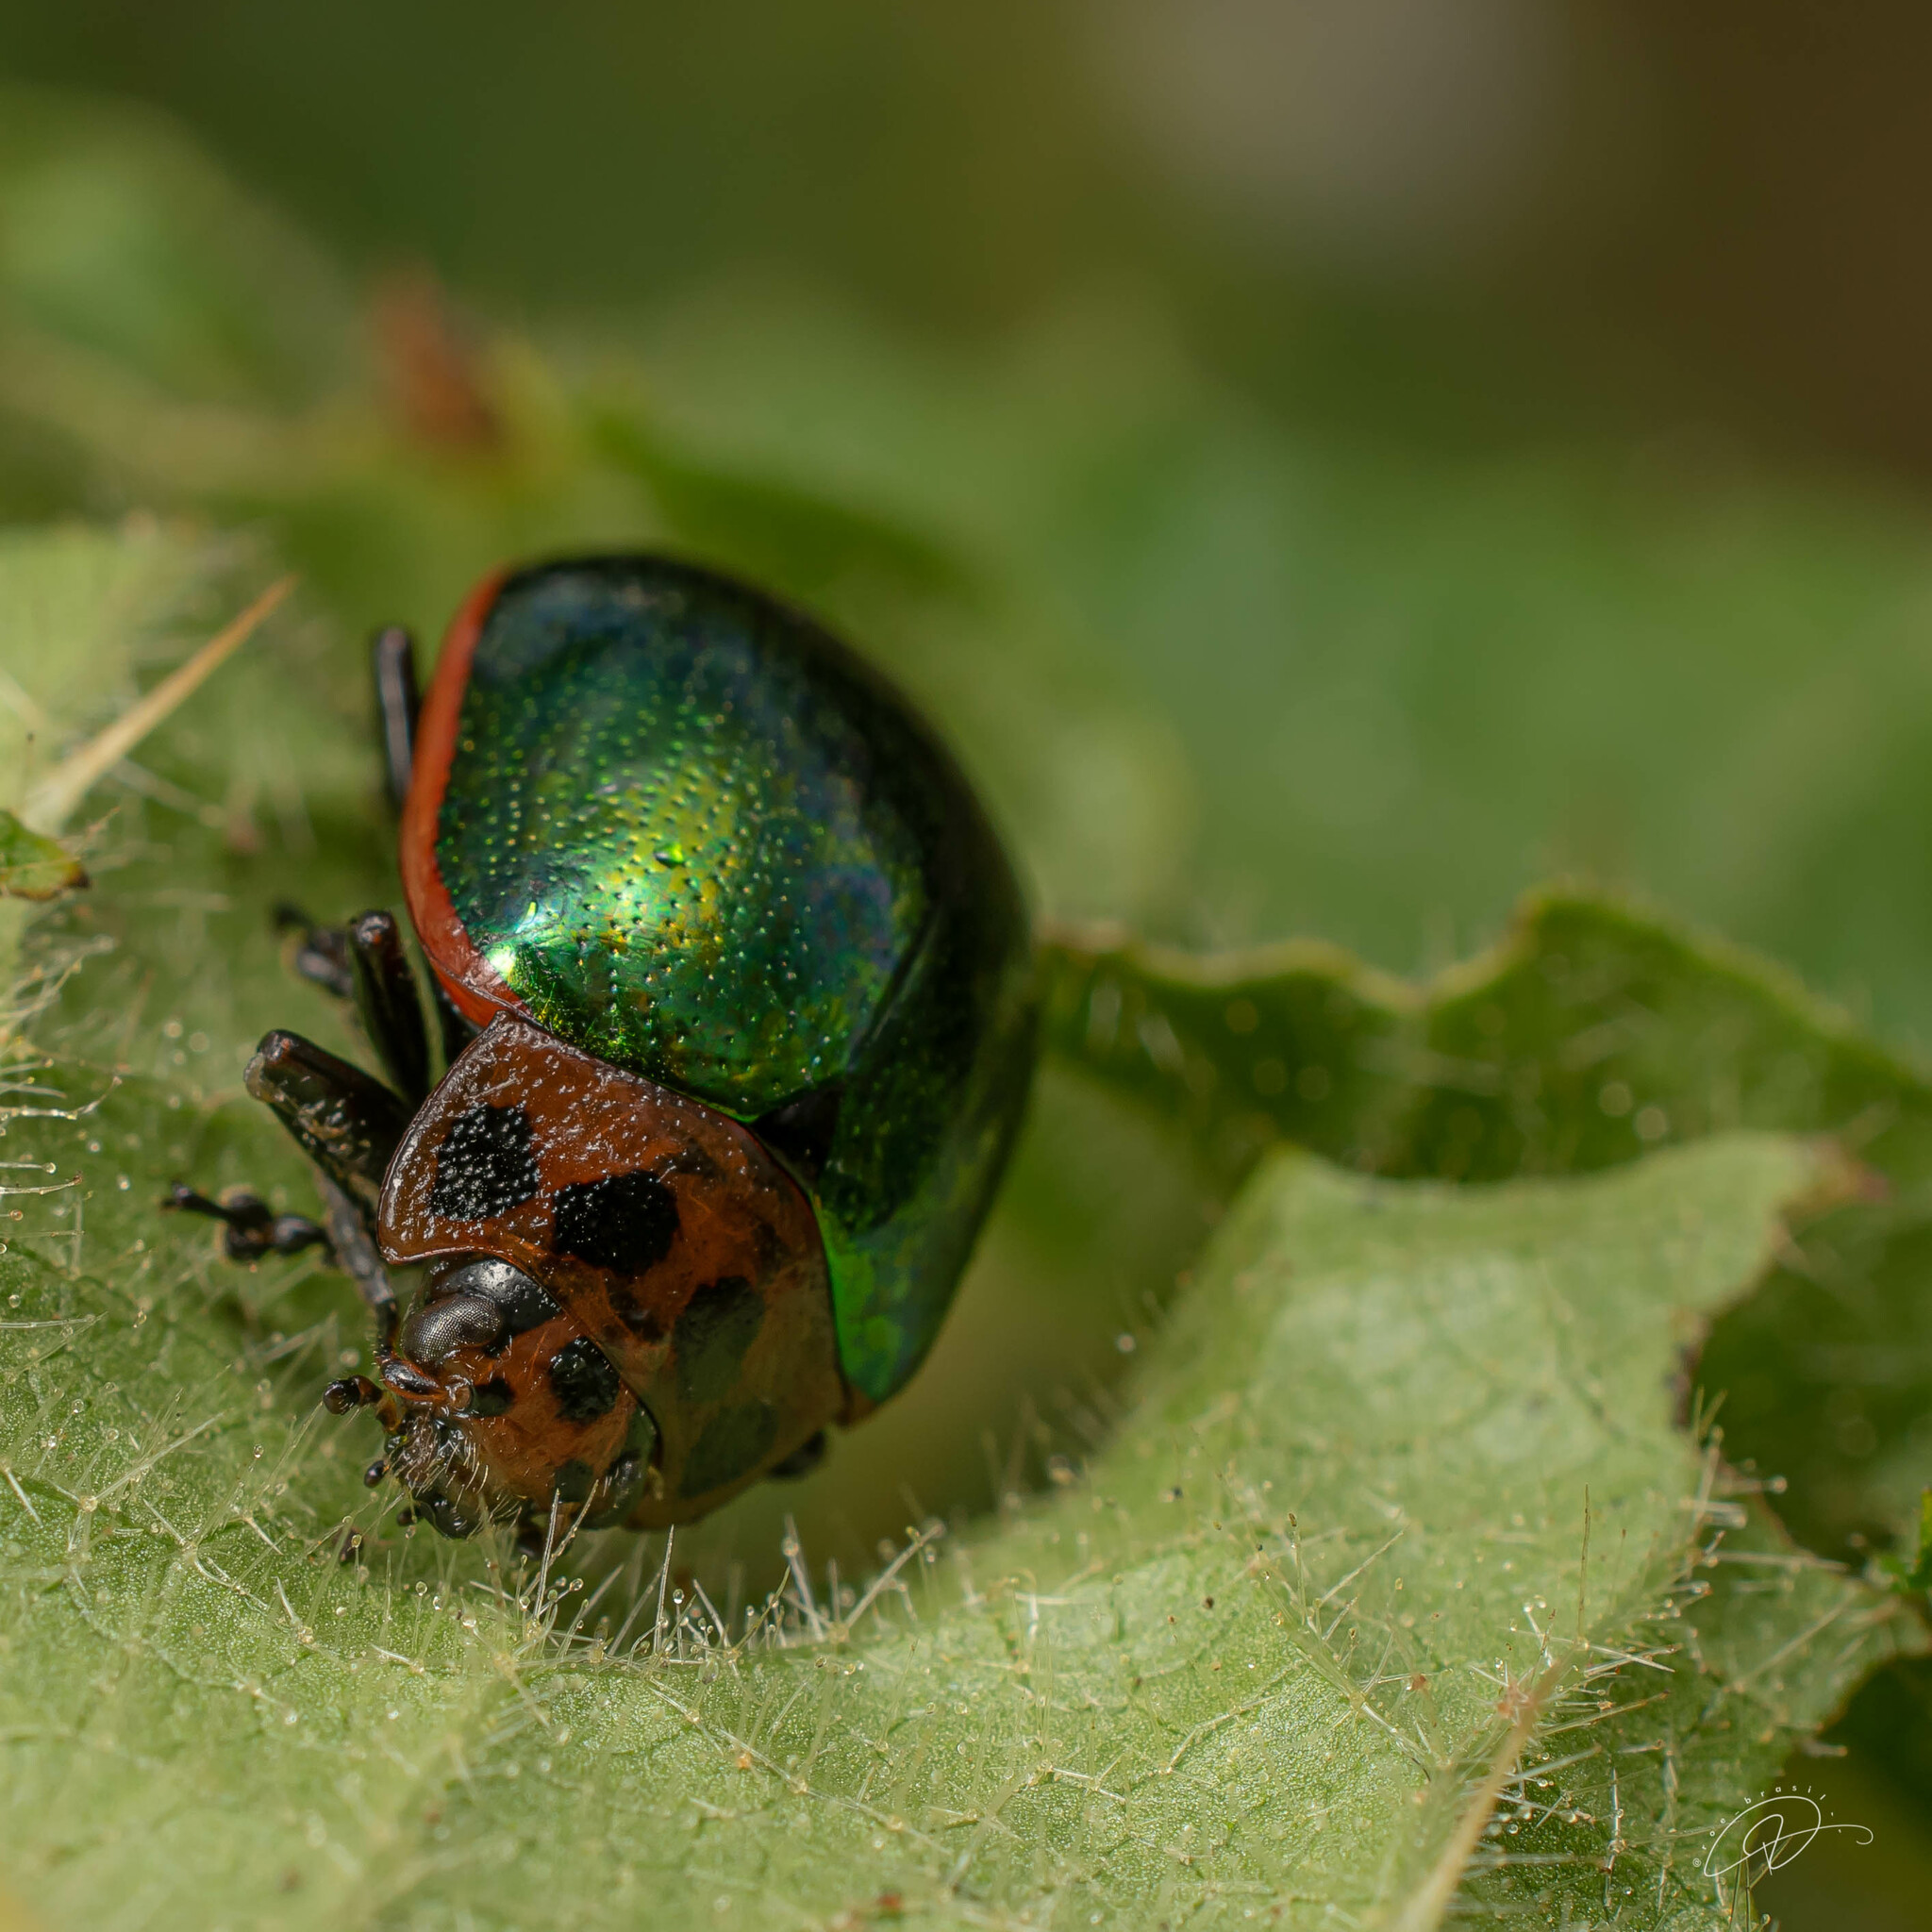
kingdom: Animalia
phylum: Arthropoda
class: Insecta
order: Coleoptera
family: Chrysomelidae
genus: Platyphora
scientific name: Platyphora
